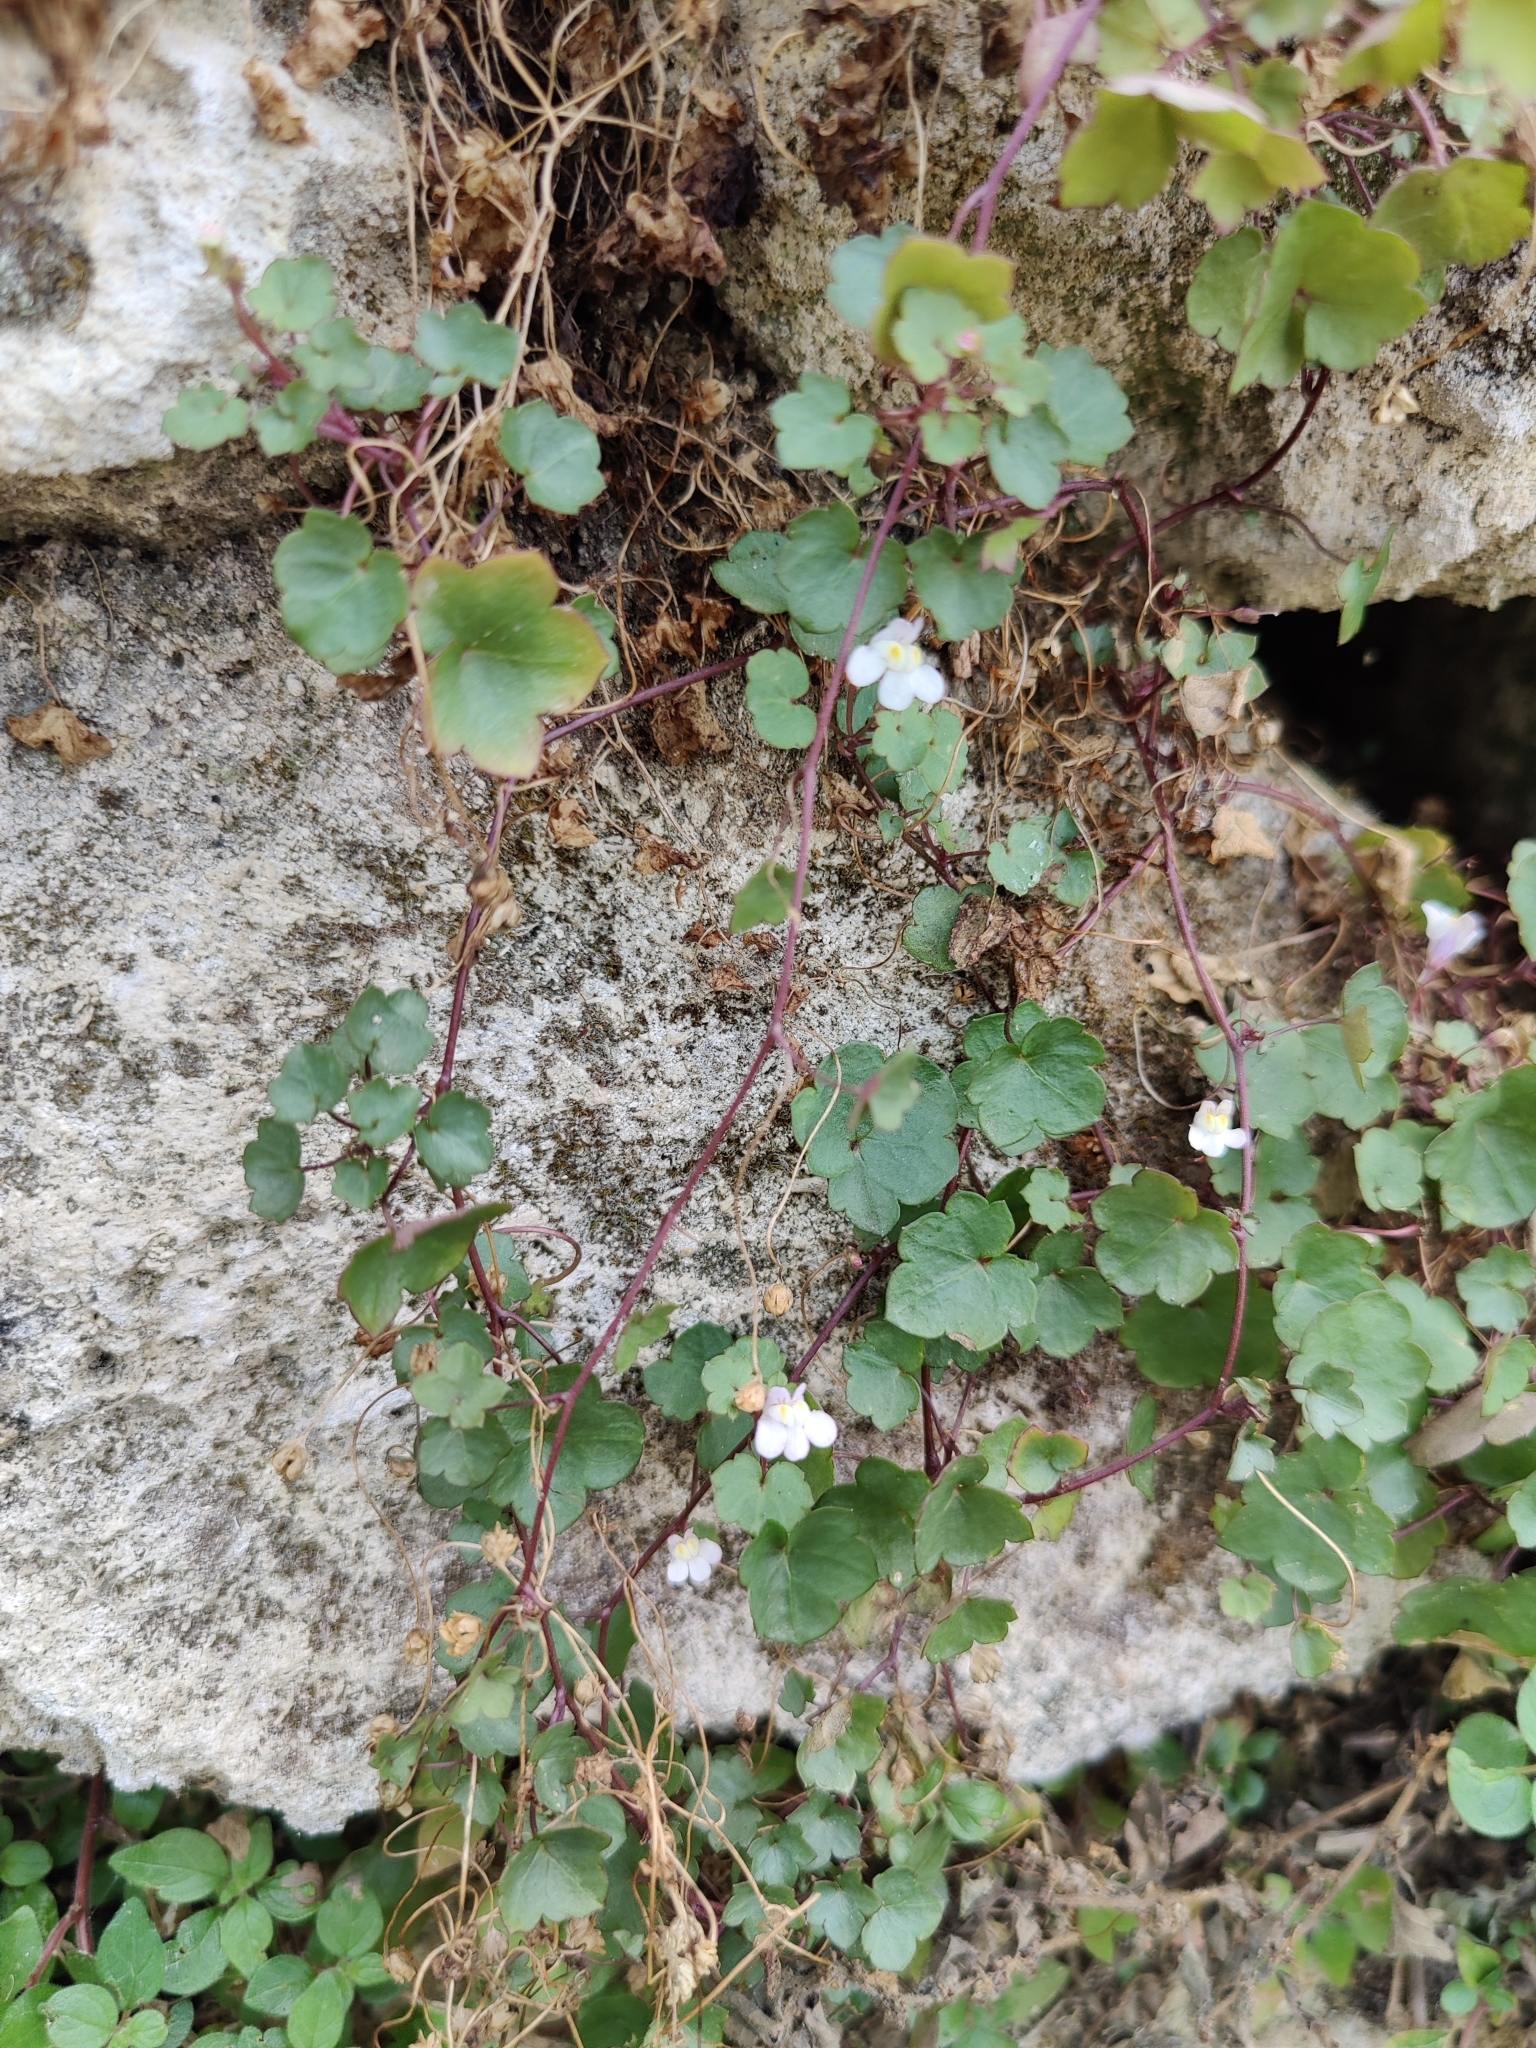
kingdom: Plantae
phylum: Tracheophyta
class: Magnoliopsida
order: Lamiales
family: Plantaginaceae
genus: Cymbalaria
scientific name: Cymbalaria muralis
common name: Ivy-leaved toadflax
